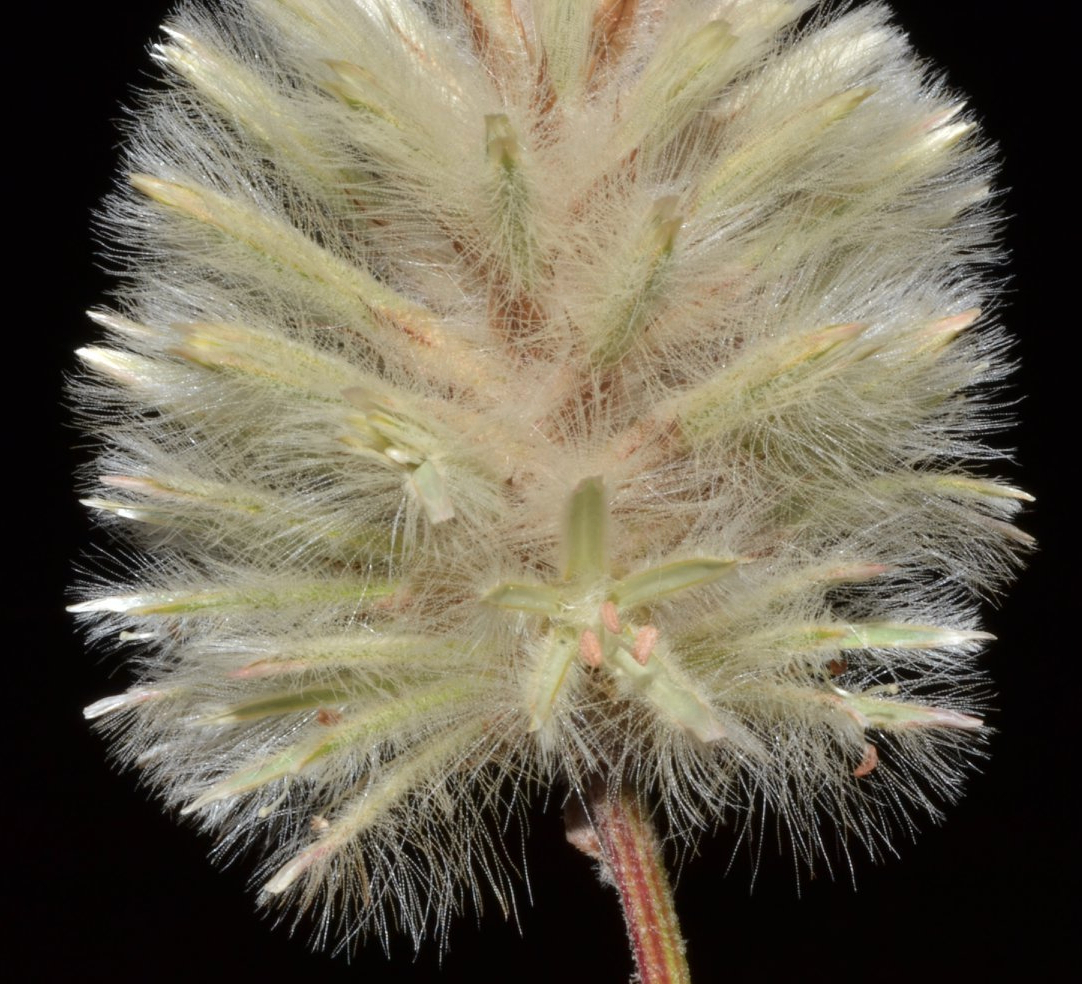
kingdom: Plantae
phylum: Tracheophyta
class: Magnoliopsida
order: Caryophyllales
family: Amaranthaceae
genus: Ptilotus
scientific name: Ptilotus angustifolius
